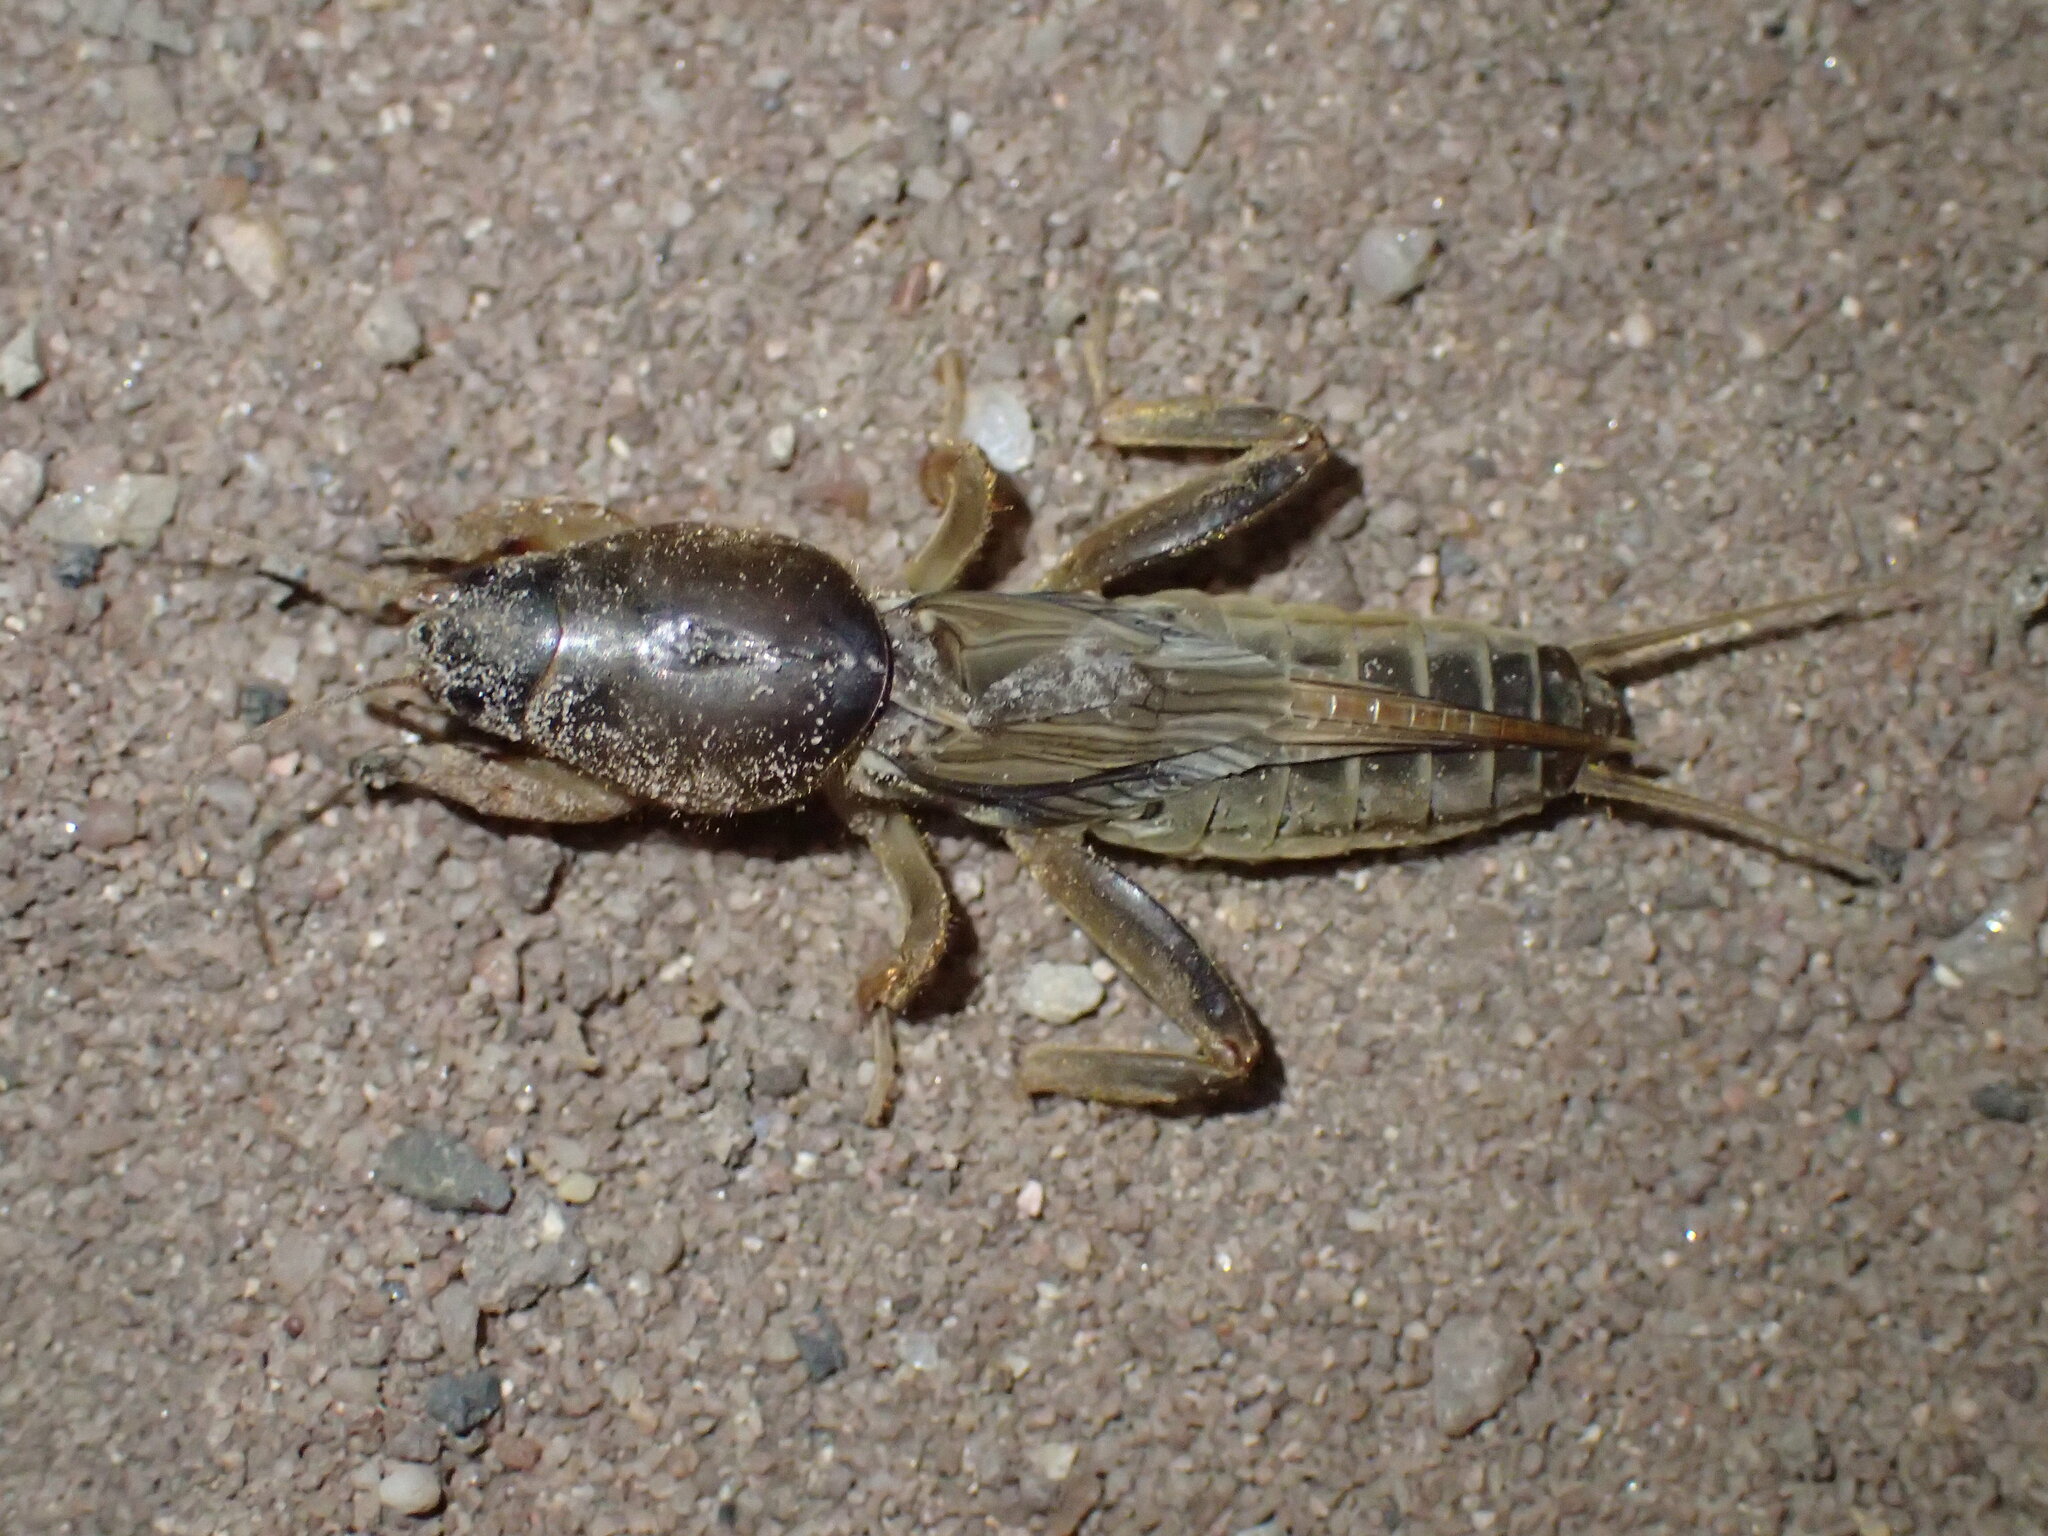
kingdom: Animalia
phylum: Arthropoda
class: Insecta
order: Orthoptera
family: Gryllotalpidae
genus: Gryllotalpa
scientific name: Gryllotalpa africana
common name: African mole cricket
